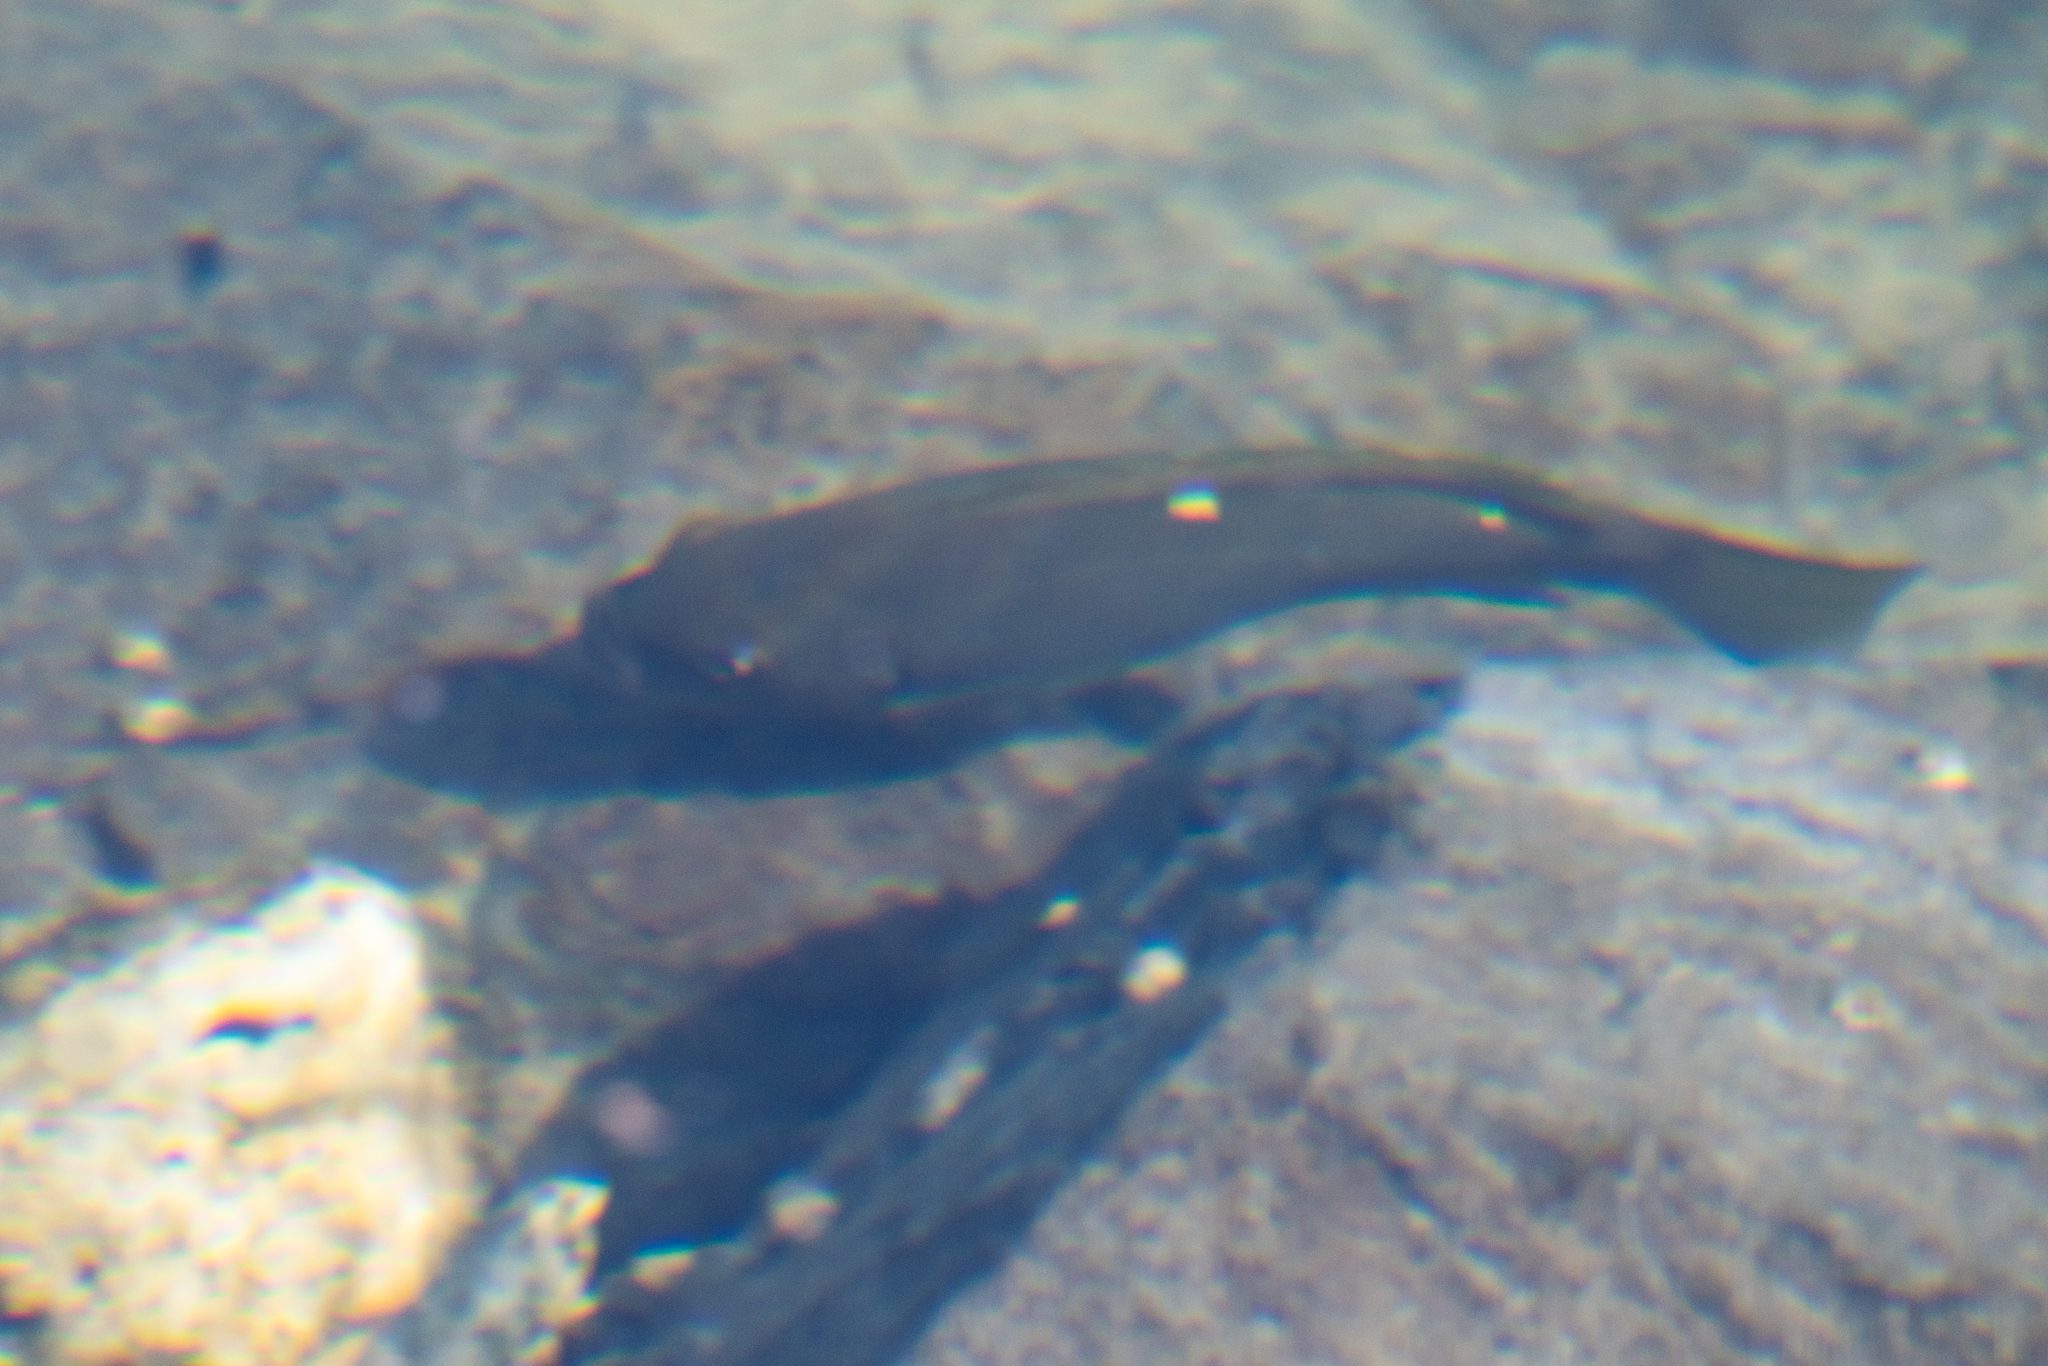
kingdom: Animalia
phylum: Chordata
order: Perciformes
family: Kyphosidae
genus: Girella
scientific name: Girella nigricans
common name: Opaleye
